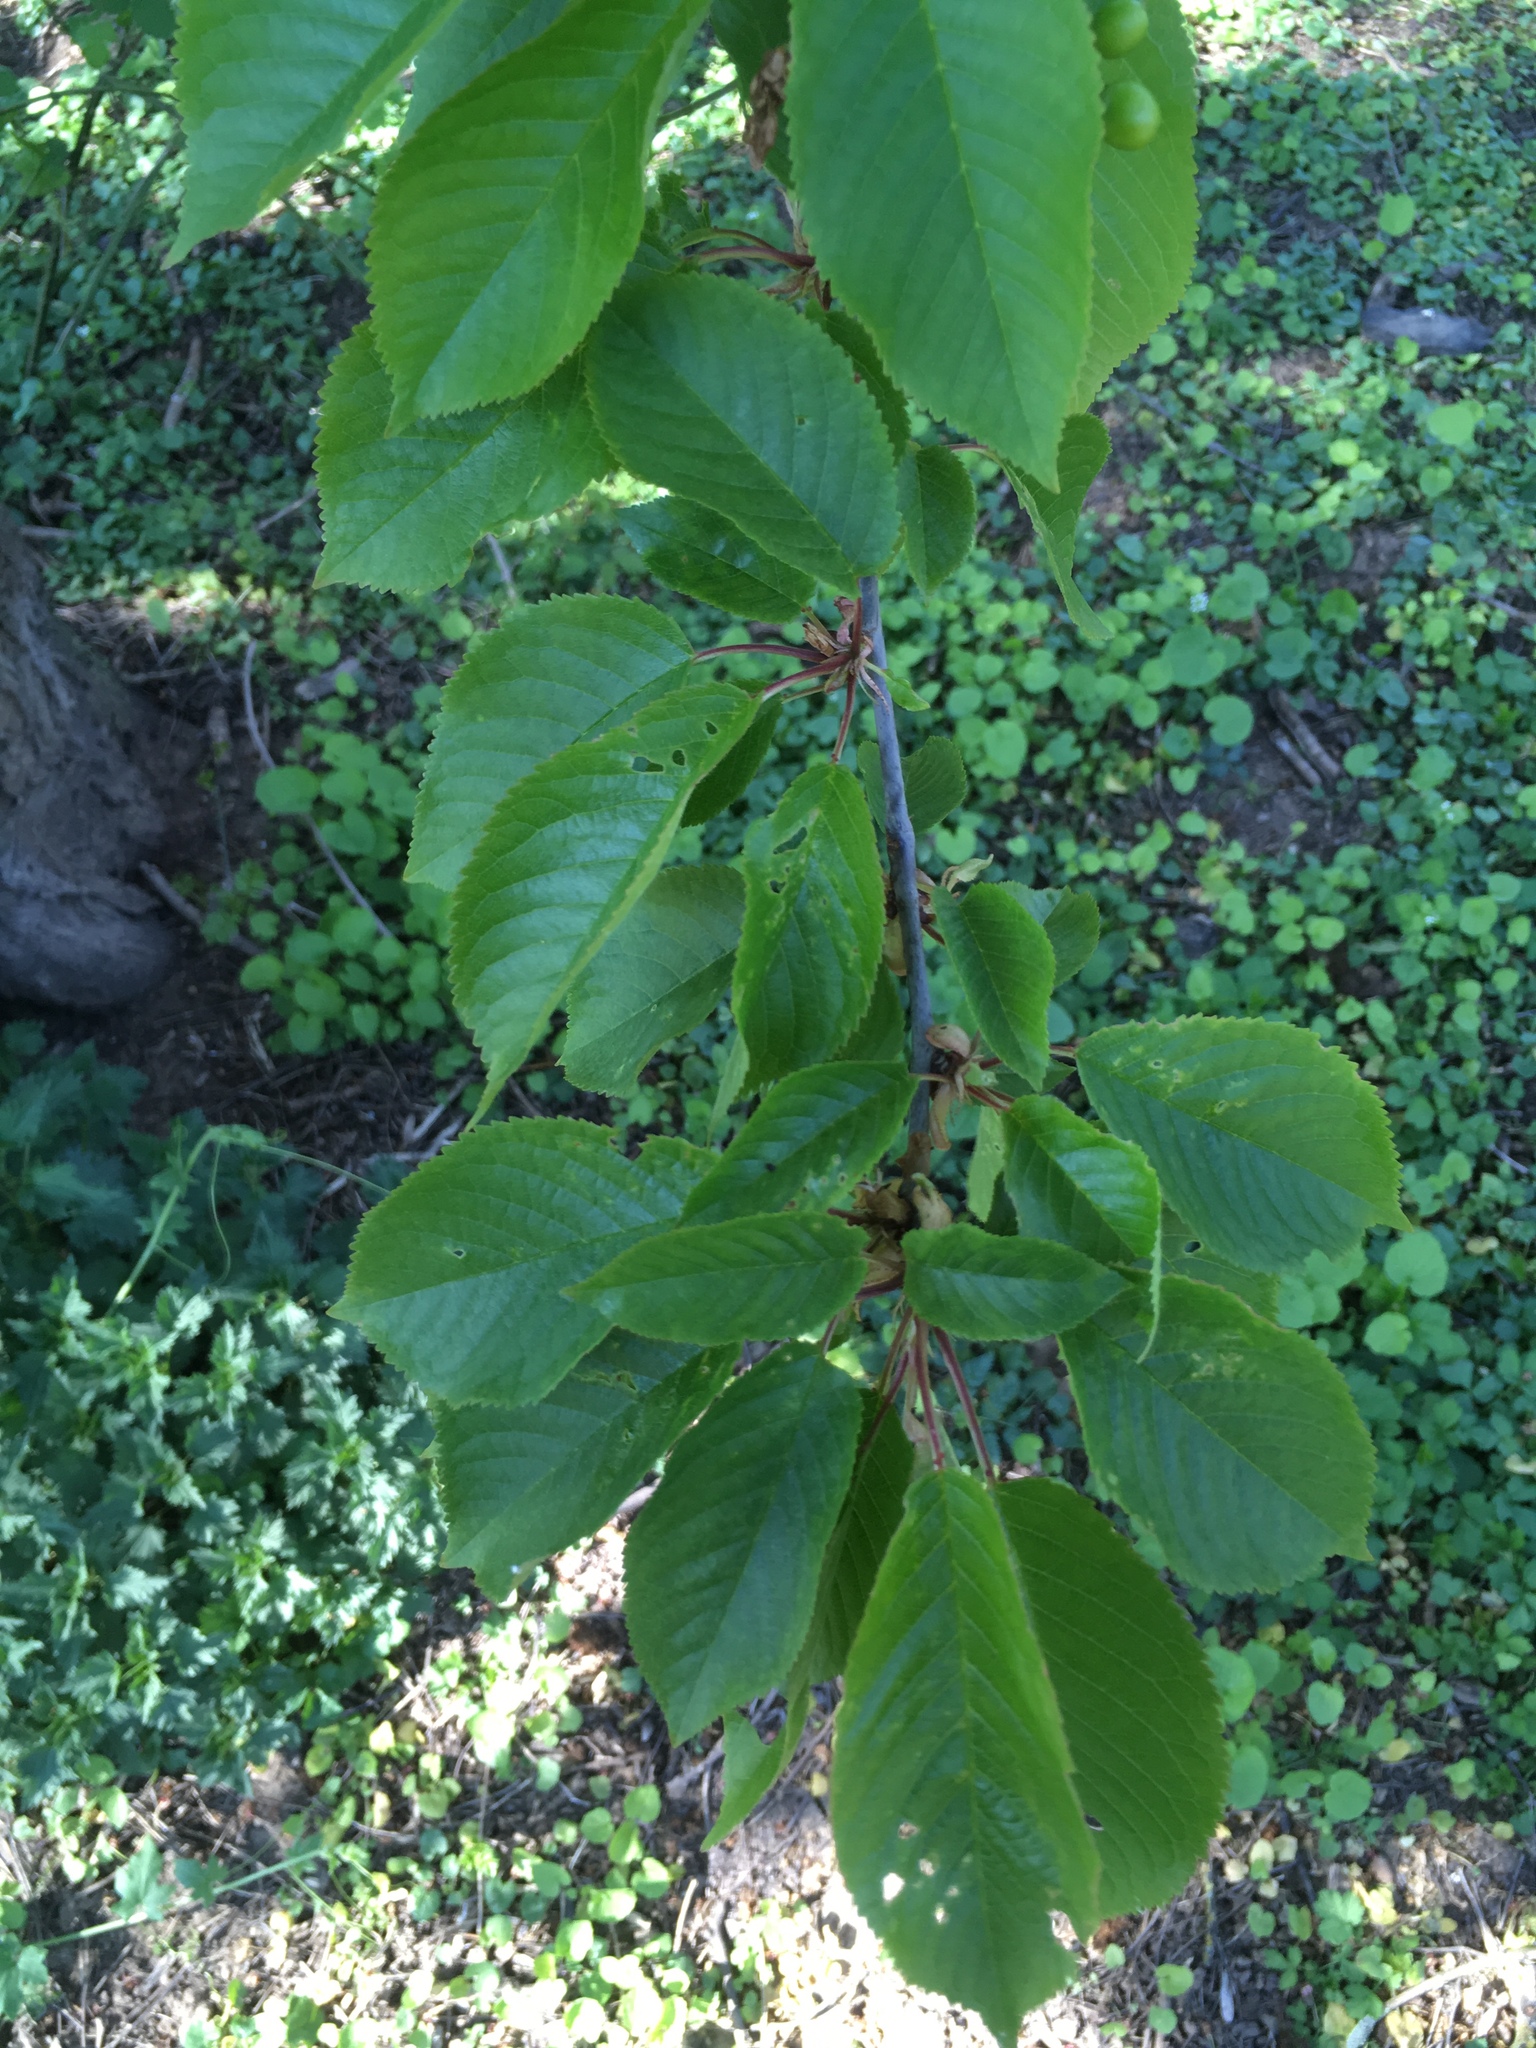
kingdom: Plantae
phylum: Tracheophyta
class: Magnoliopsida
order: Rosales
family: Rosaceae
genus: Prunus
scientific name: Prunus avium
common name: Sweet cherry
